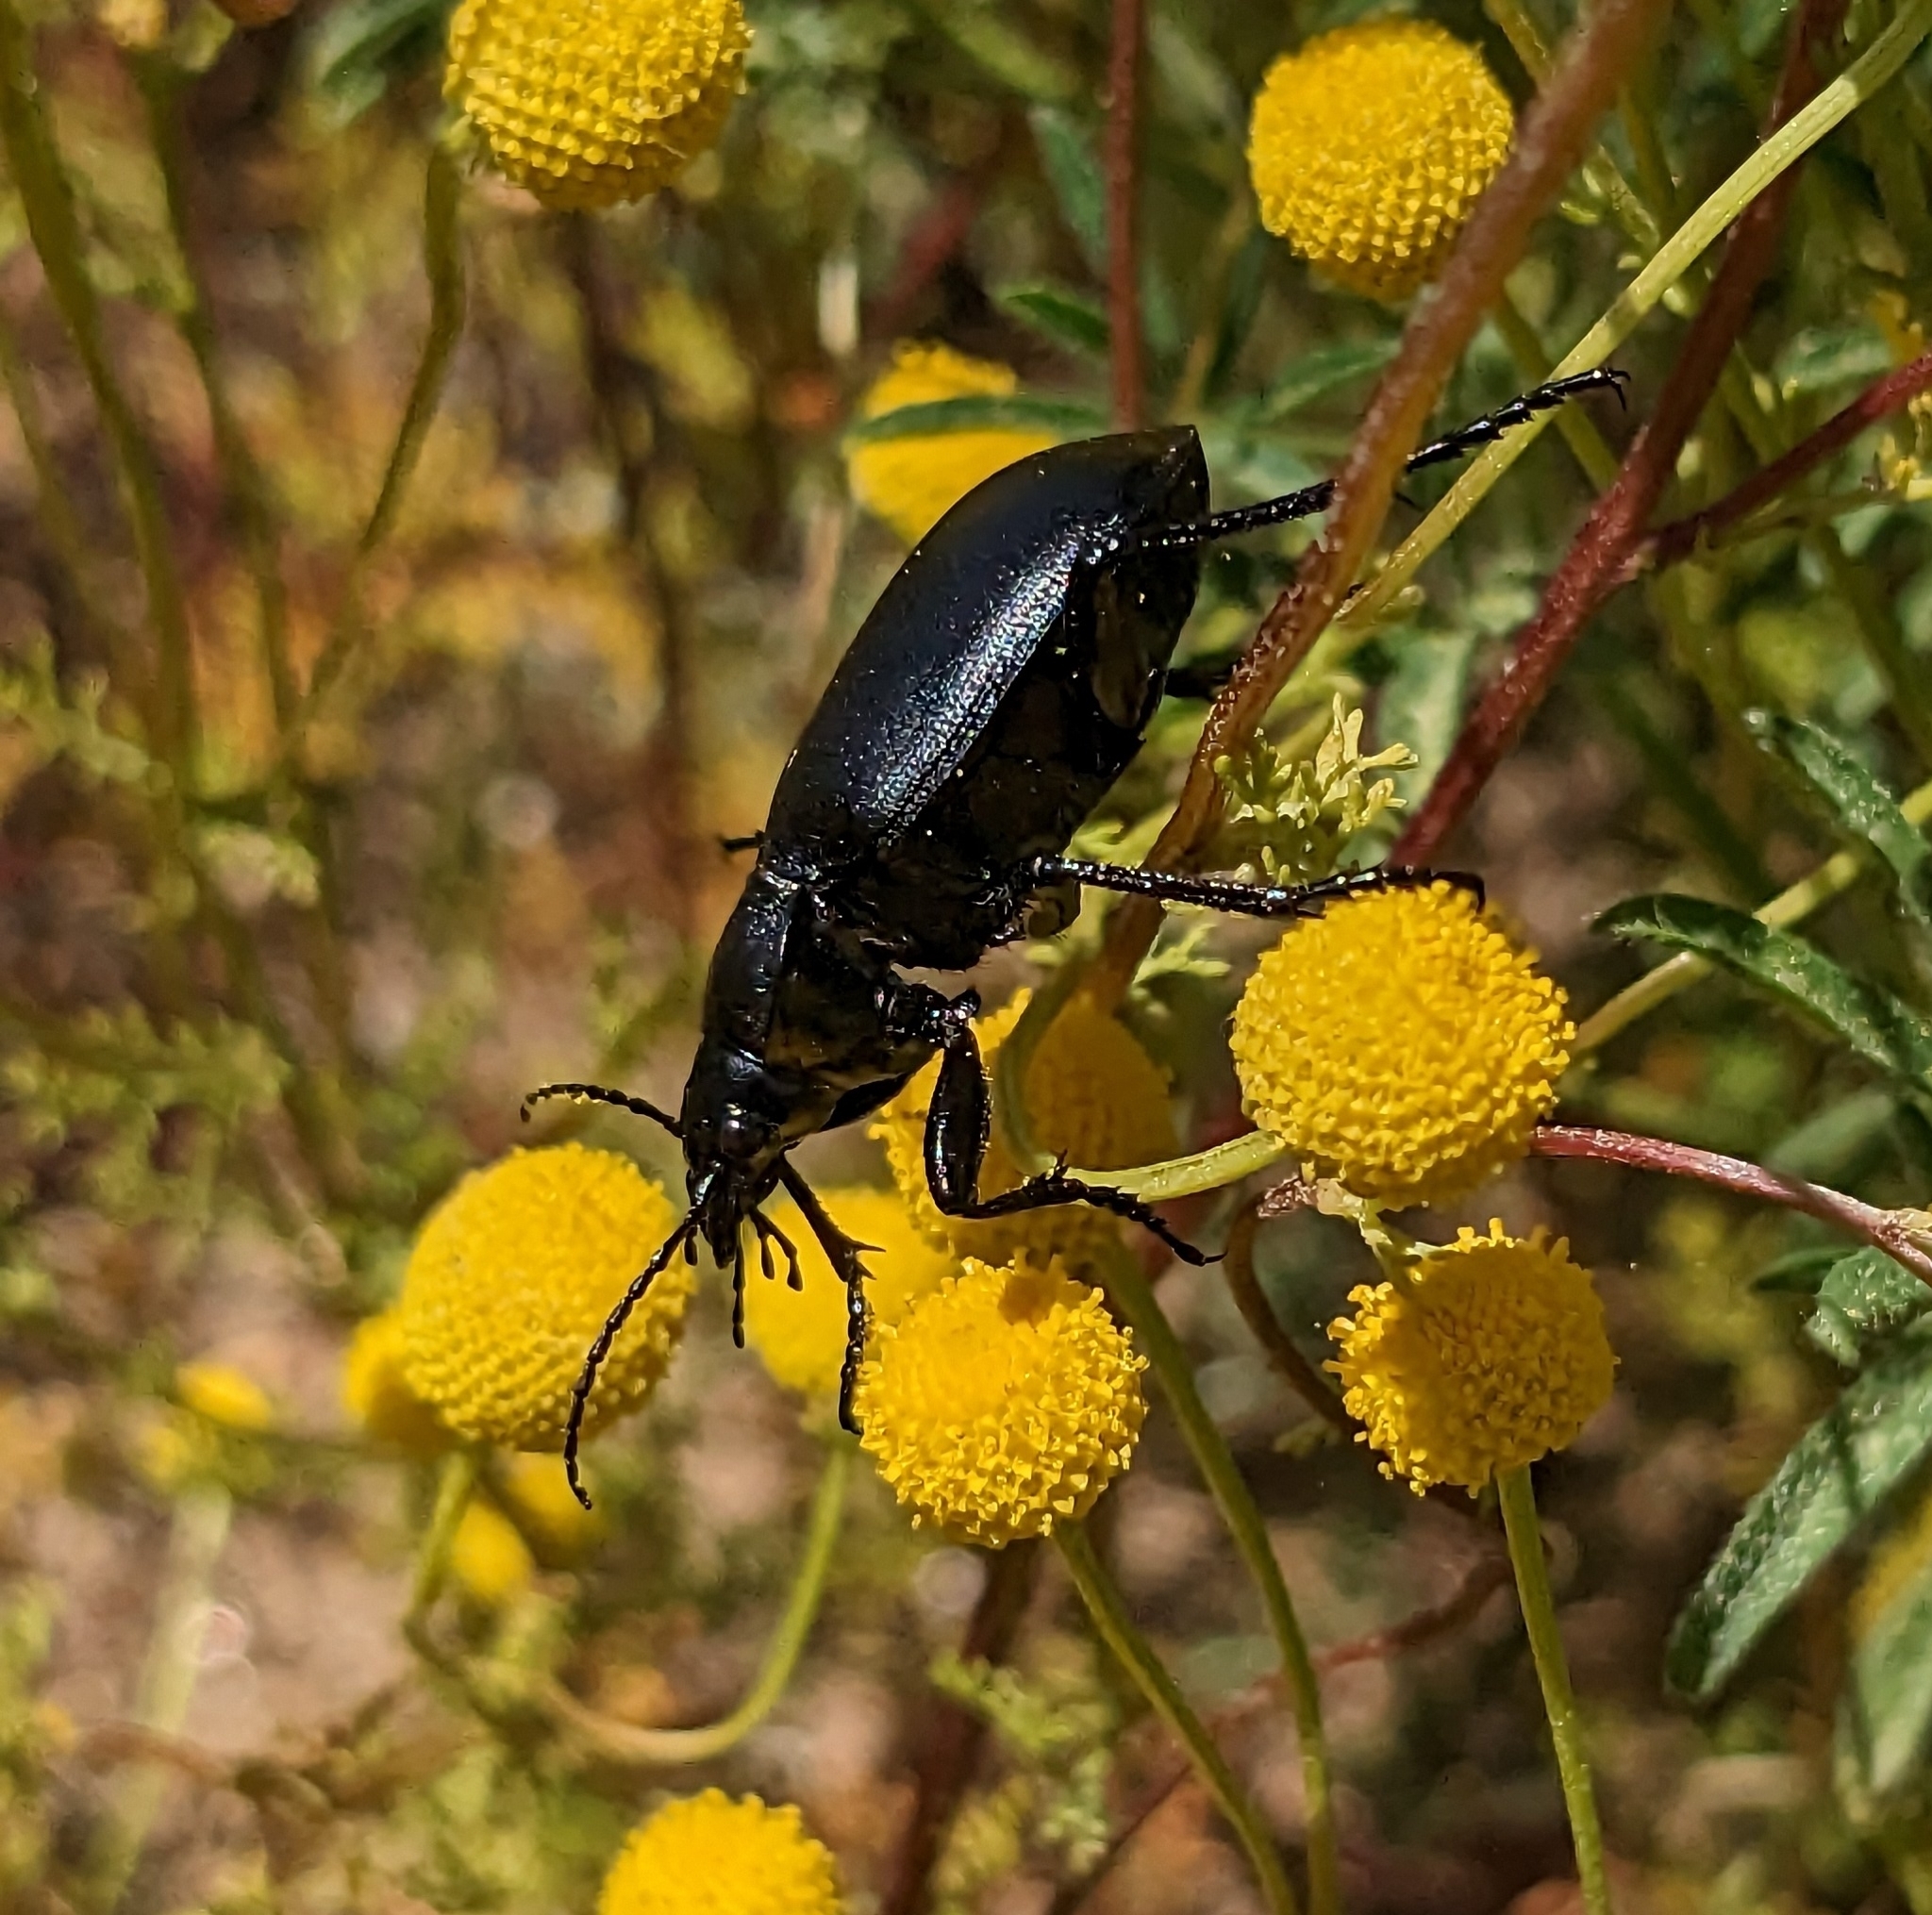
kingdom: Animalia
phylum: Arthropoda
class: Insecta
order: Coleoptera
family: Carabidae
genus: Calosoma
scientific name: Calosoma semilaeve
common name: Black calosoma beetle
